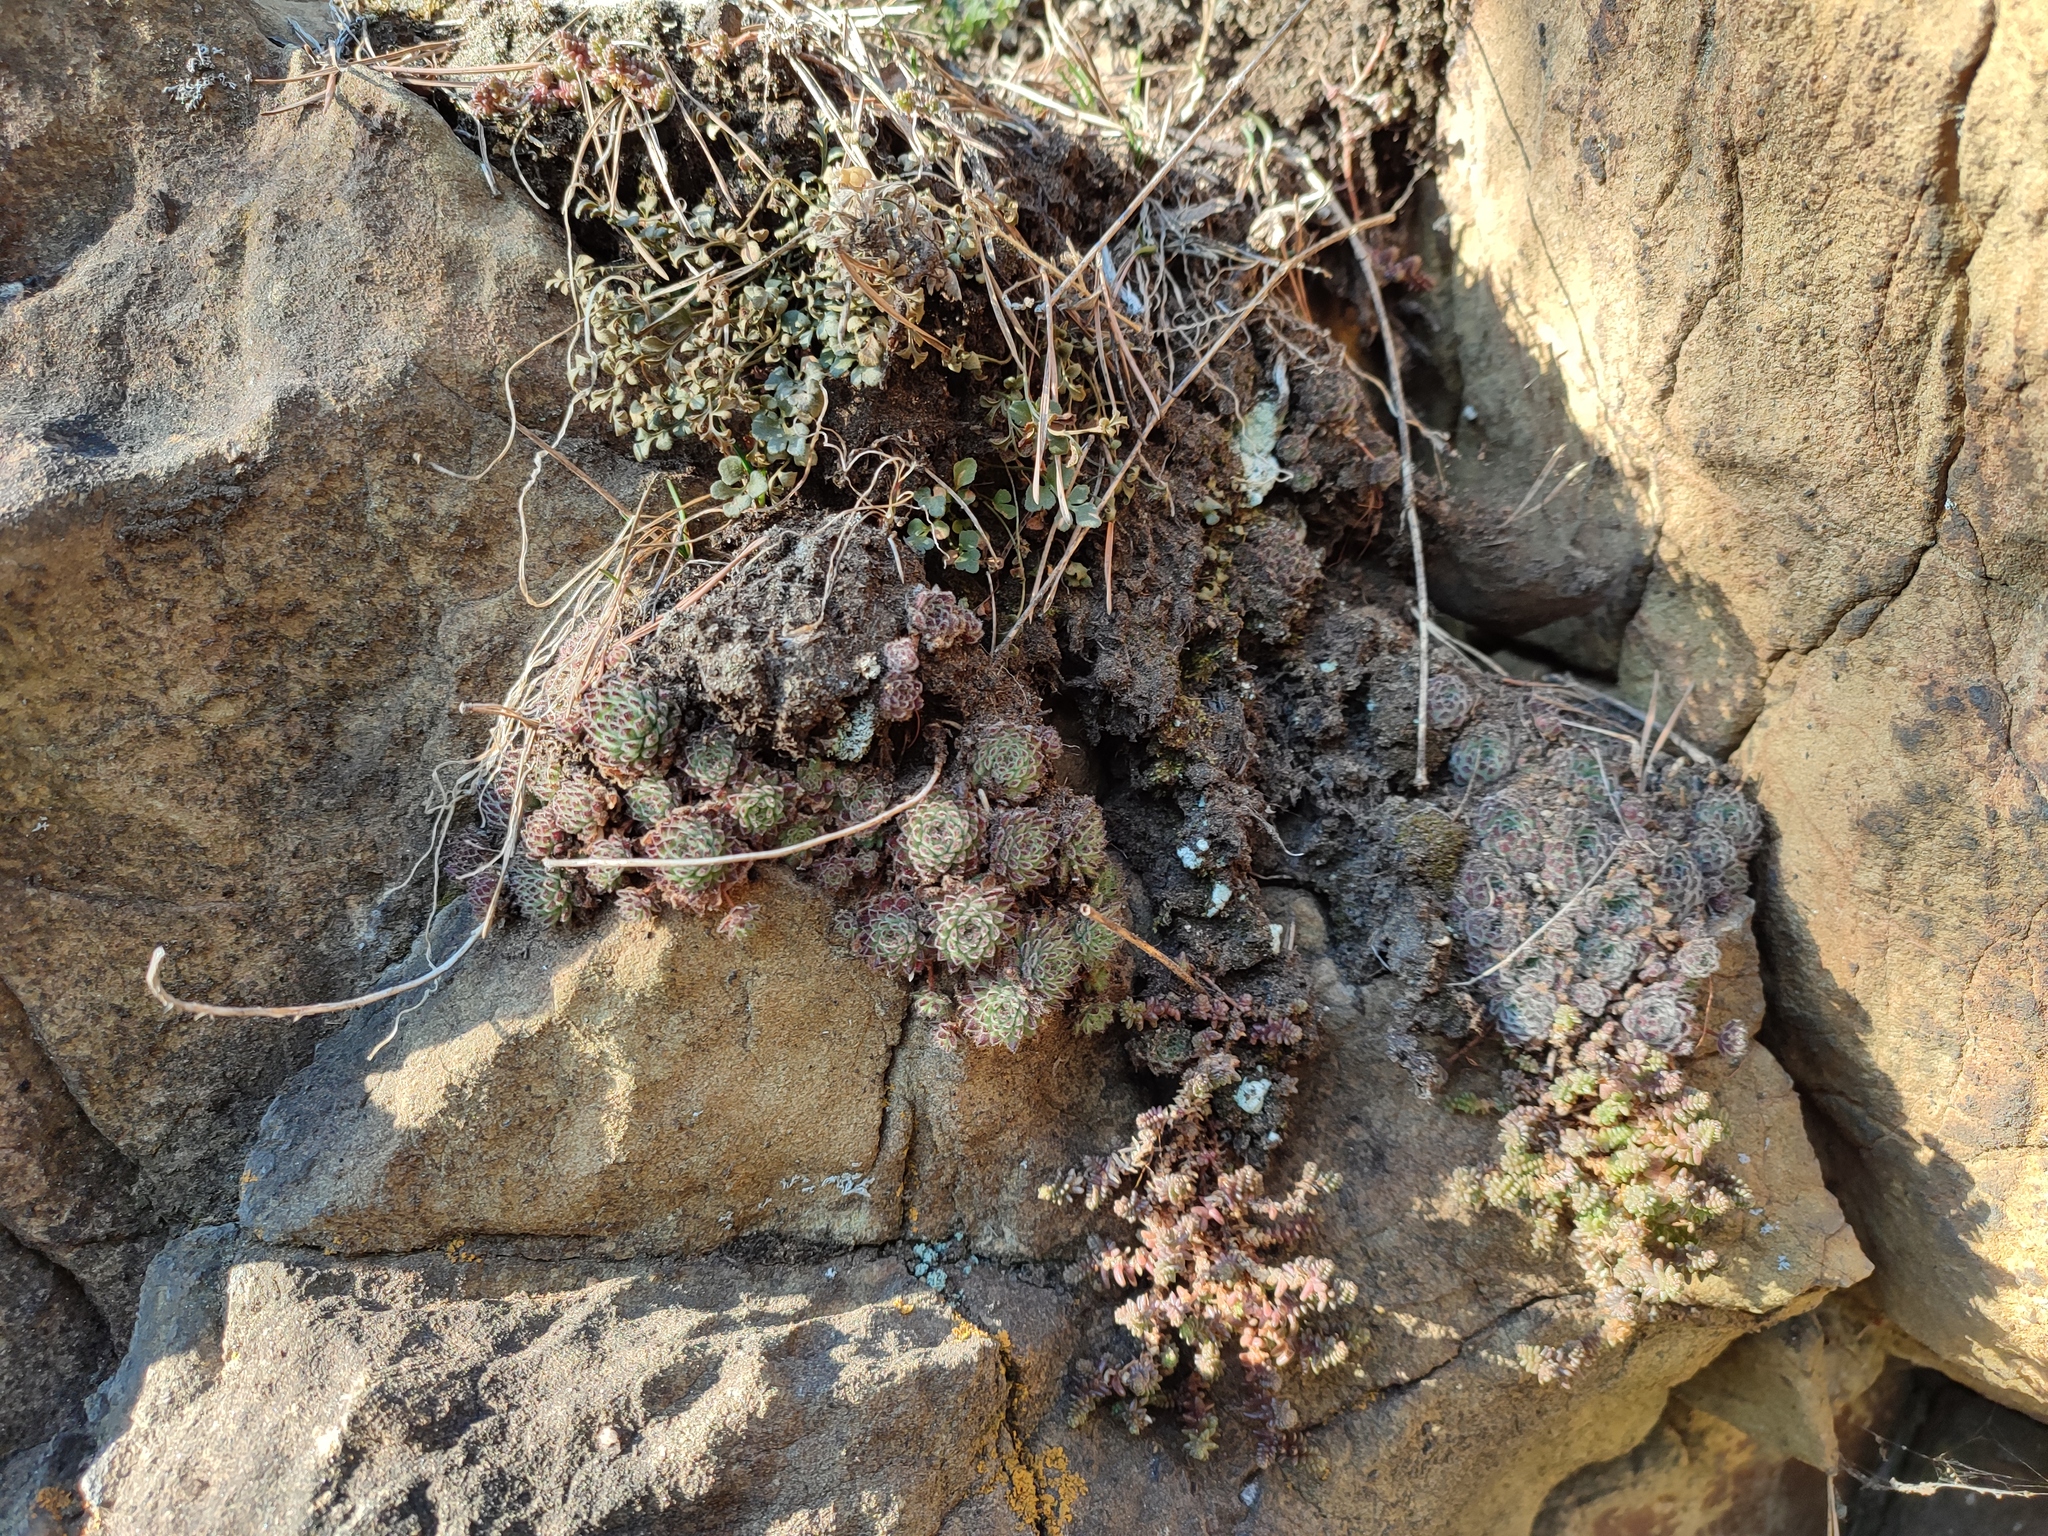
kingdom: Plantae
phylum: Tracheophyta
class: Magnoliopsida
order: Saxifragales
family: Crassulaceae
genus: Sempervivum
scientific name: Sempervivum pittonii
